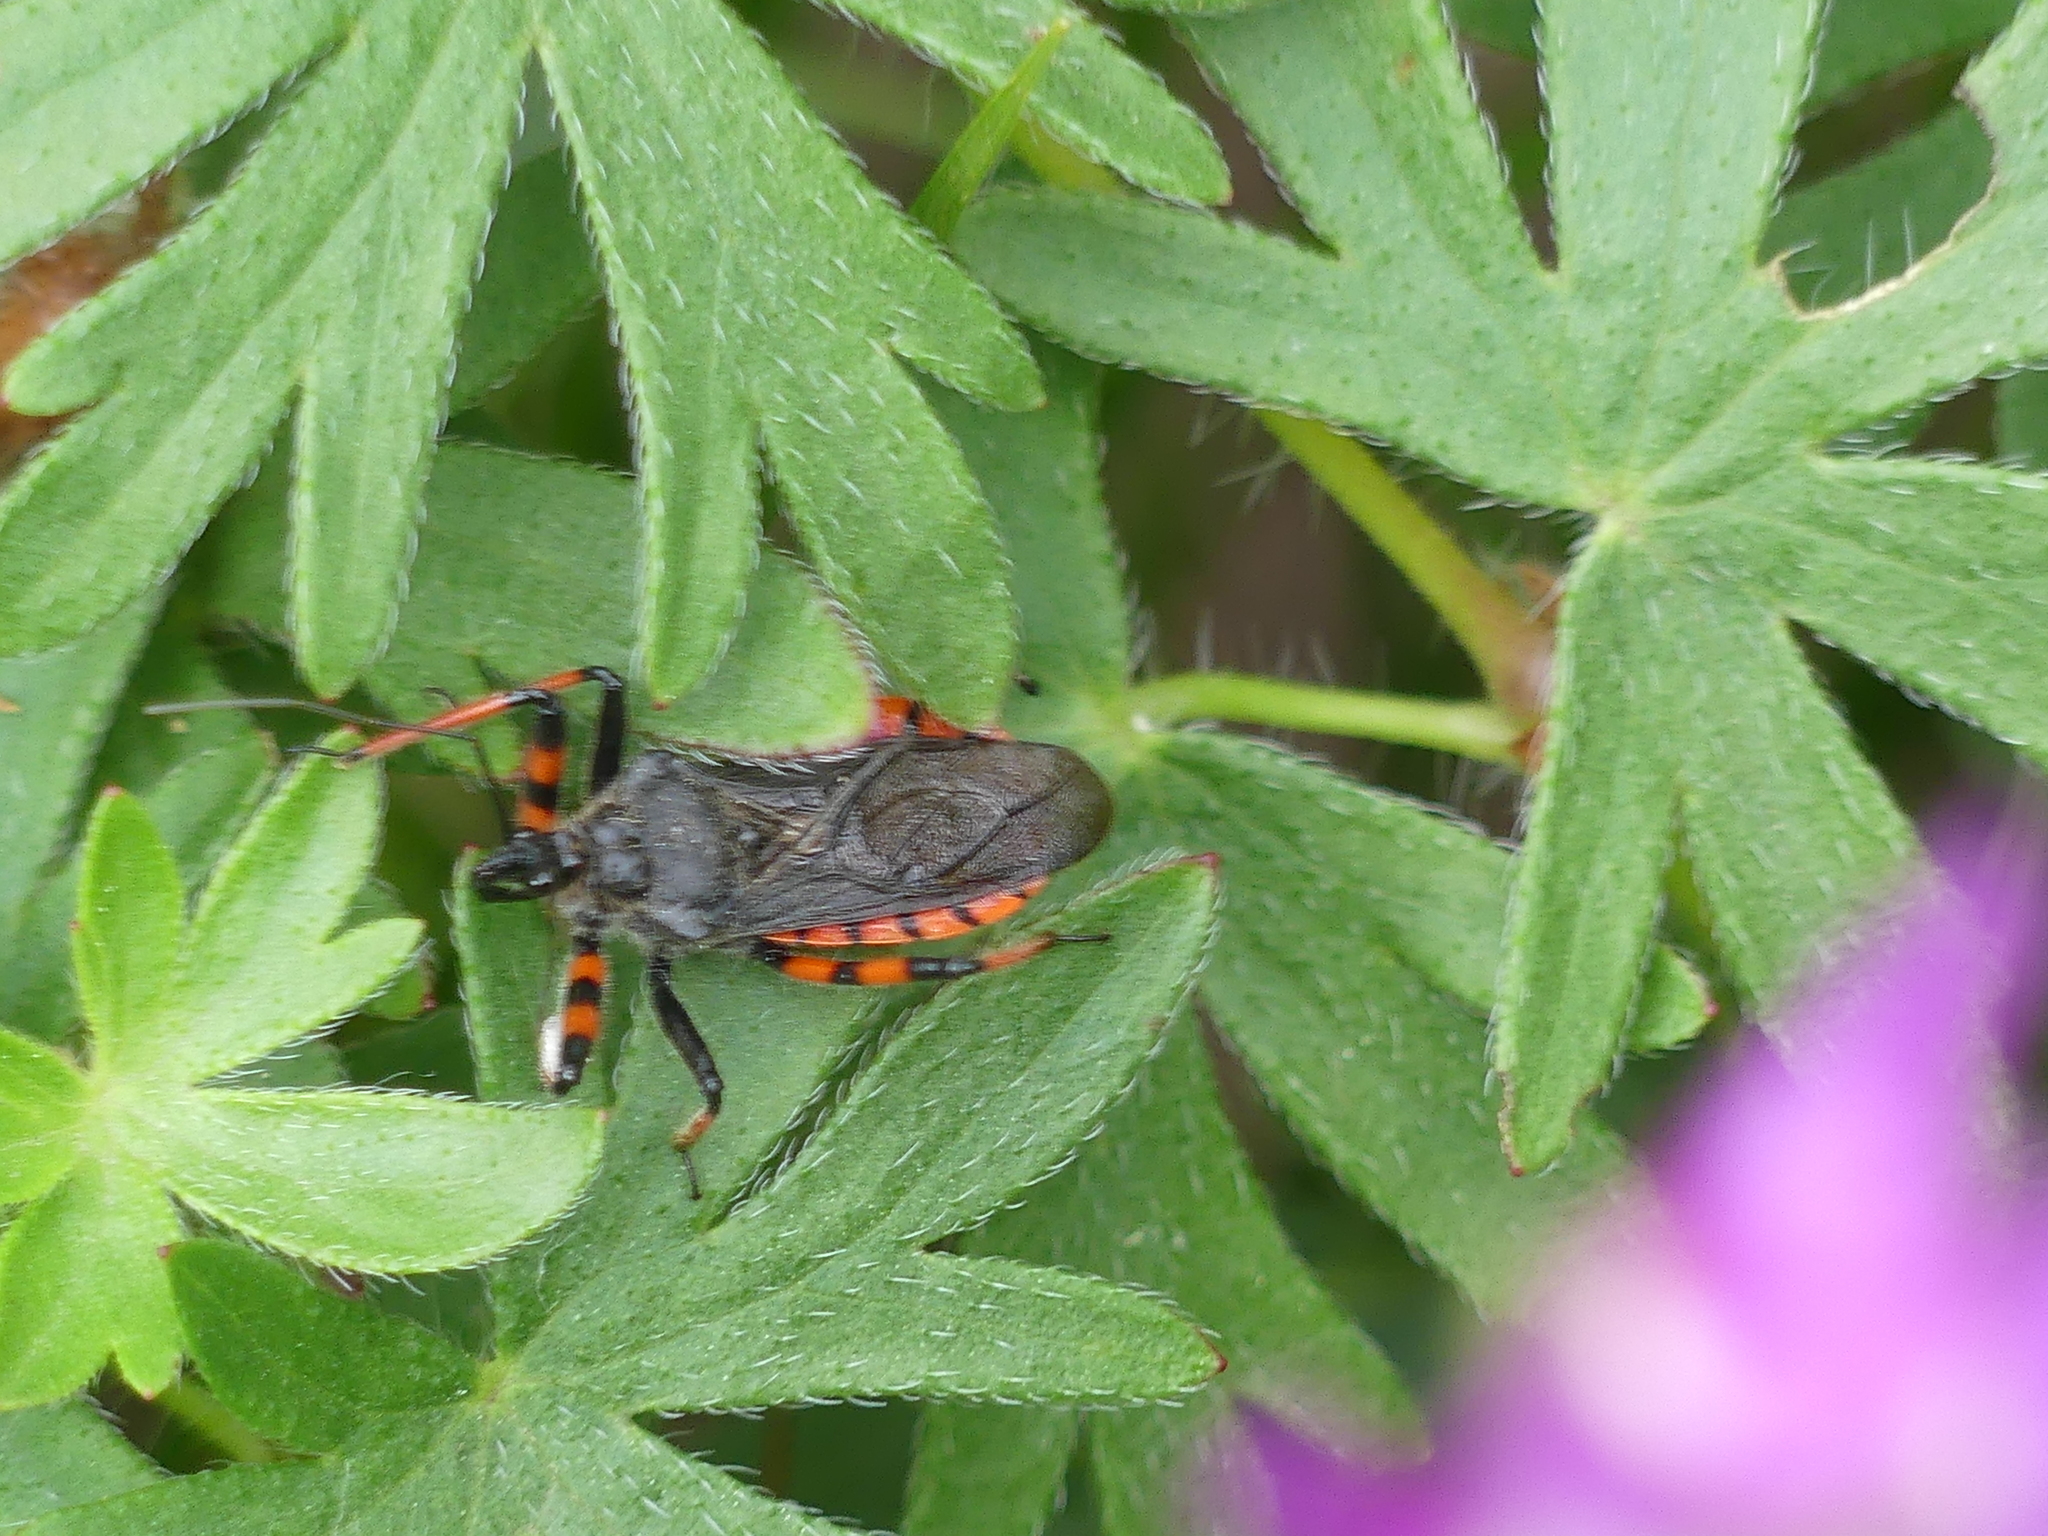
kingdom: Animalia
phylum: Arthropoda
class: Insecta
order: Hemiptera
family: Reduviidae
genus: Rhynocoris
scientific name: Rhynocoris annulatus
